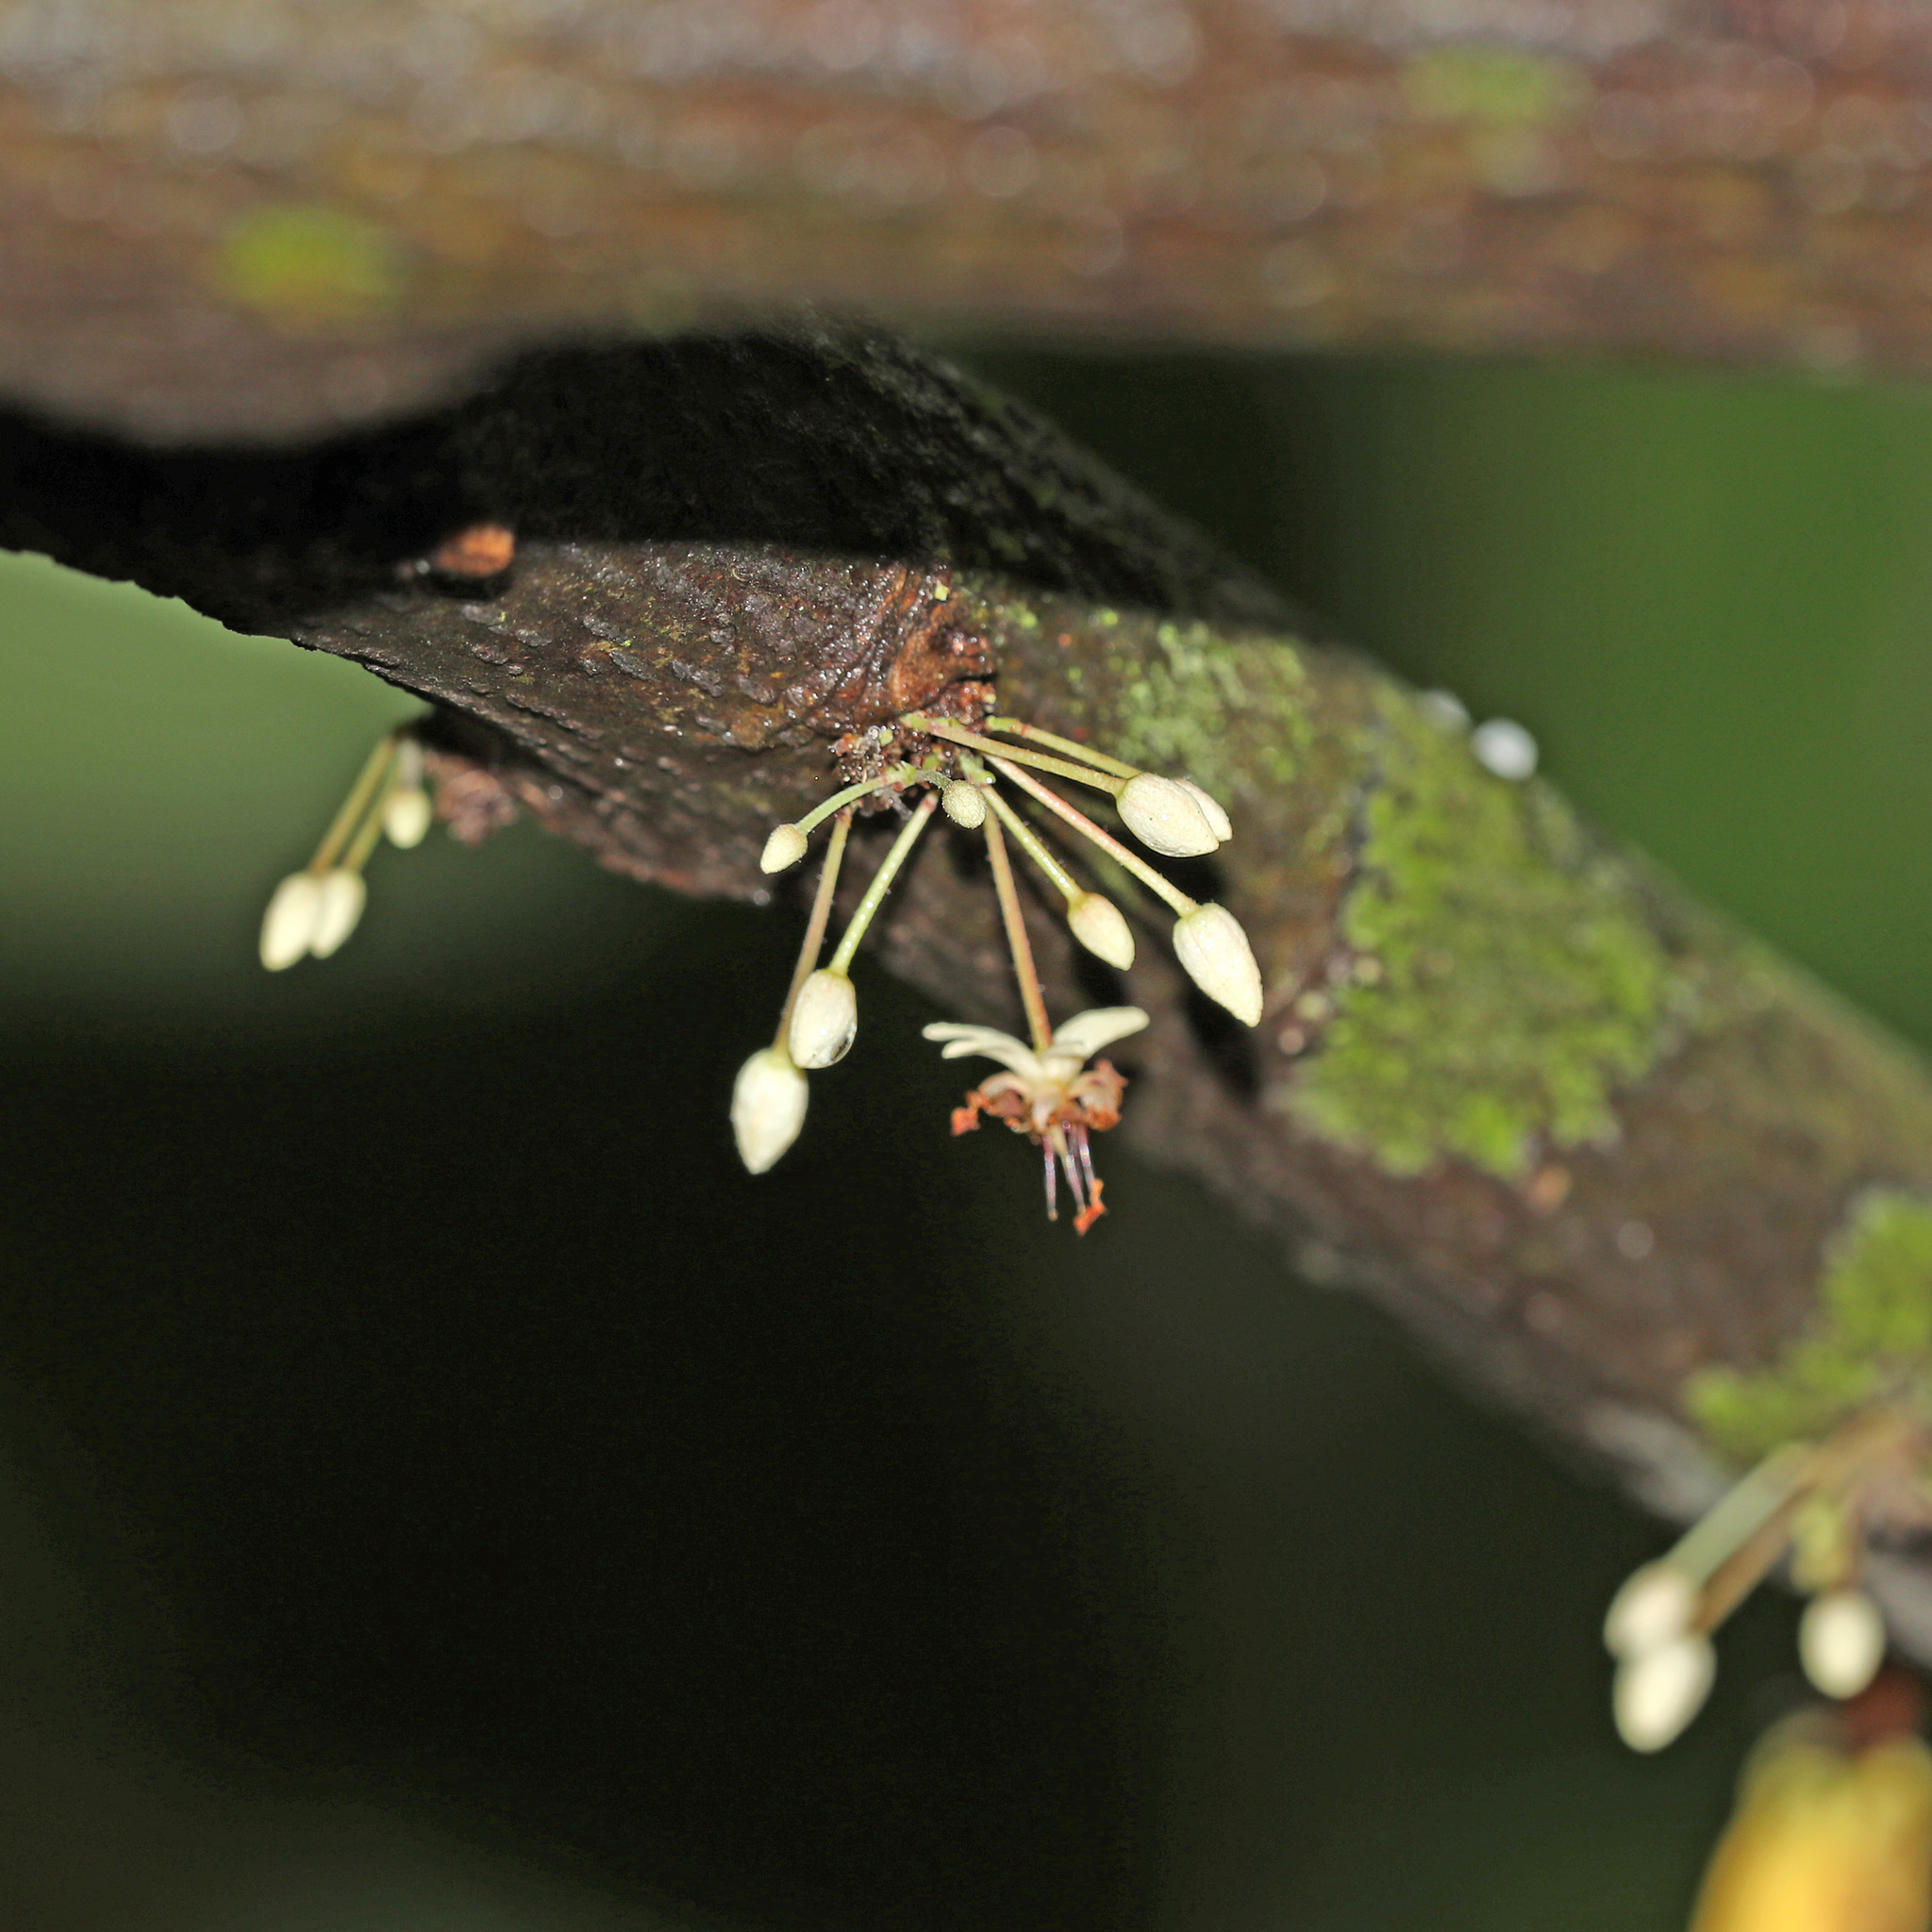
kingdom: Plantae
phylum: Tracheophyta
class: Magnoliopsida
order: Malvales
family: Malvaceae
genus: Theobroma
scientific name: Theobroma cacao
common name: Cocoa
